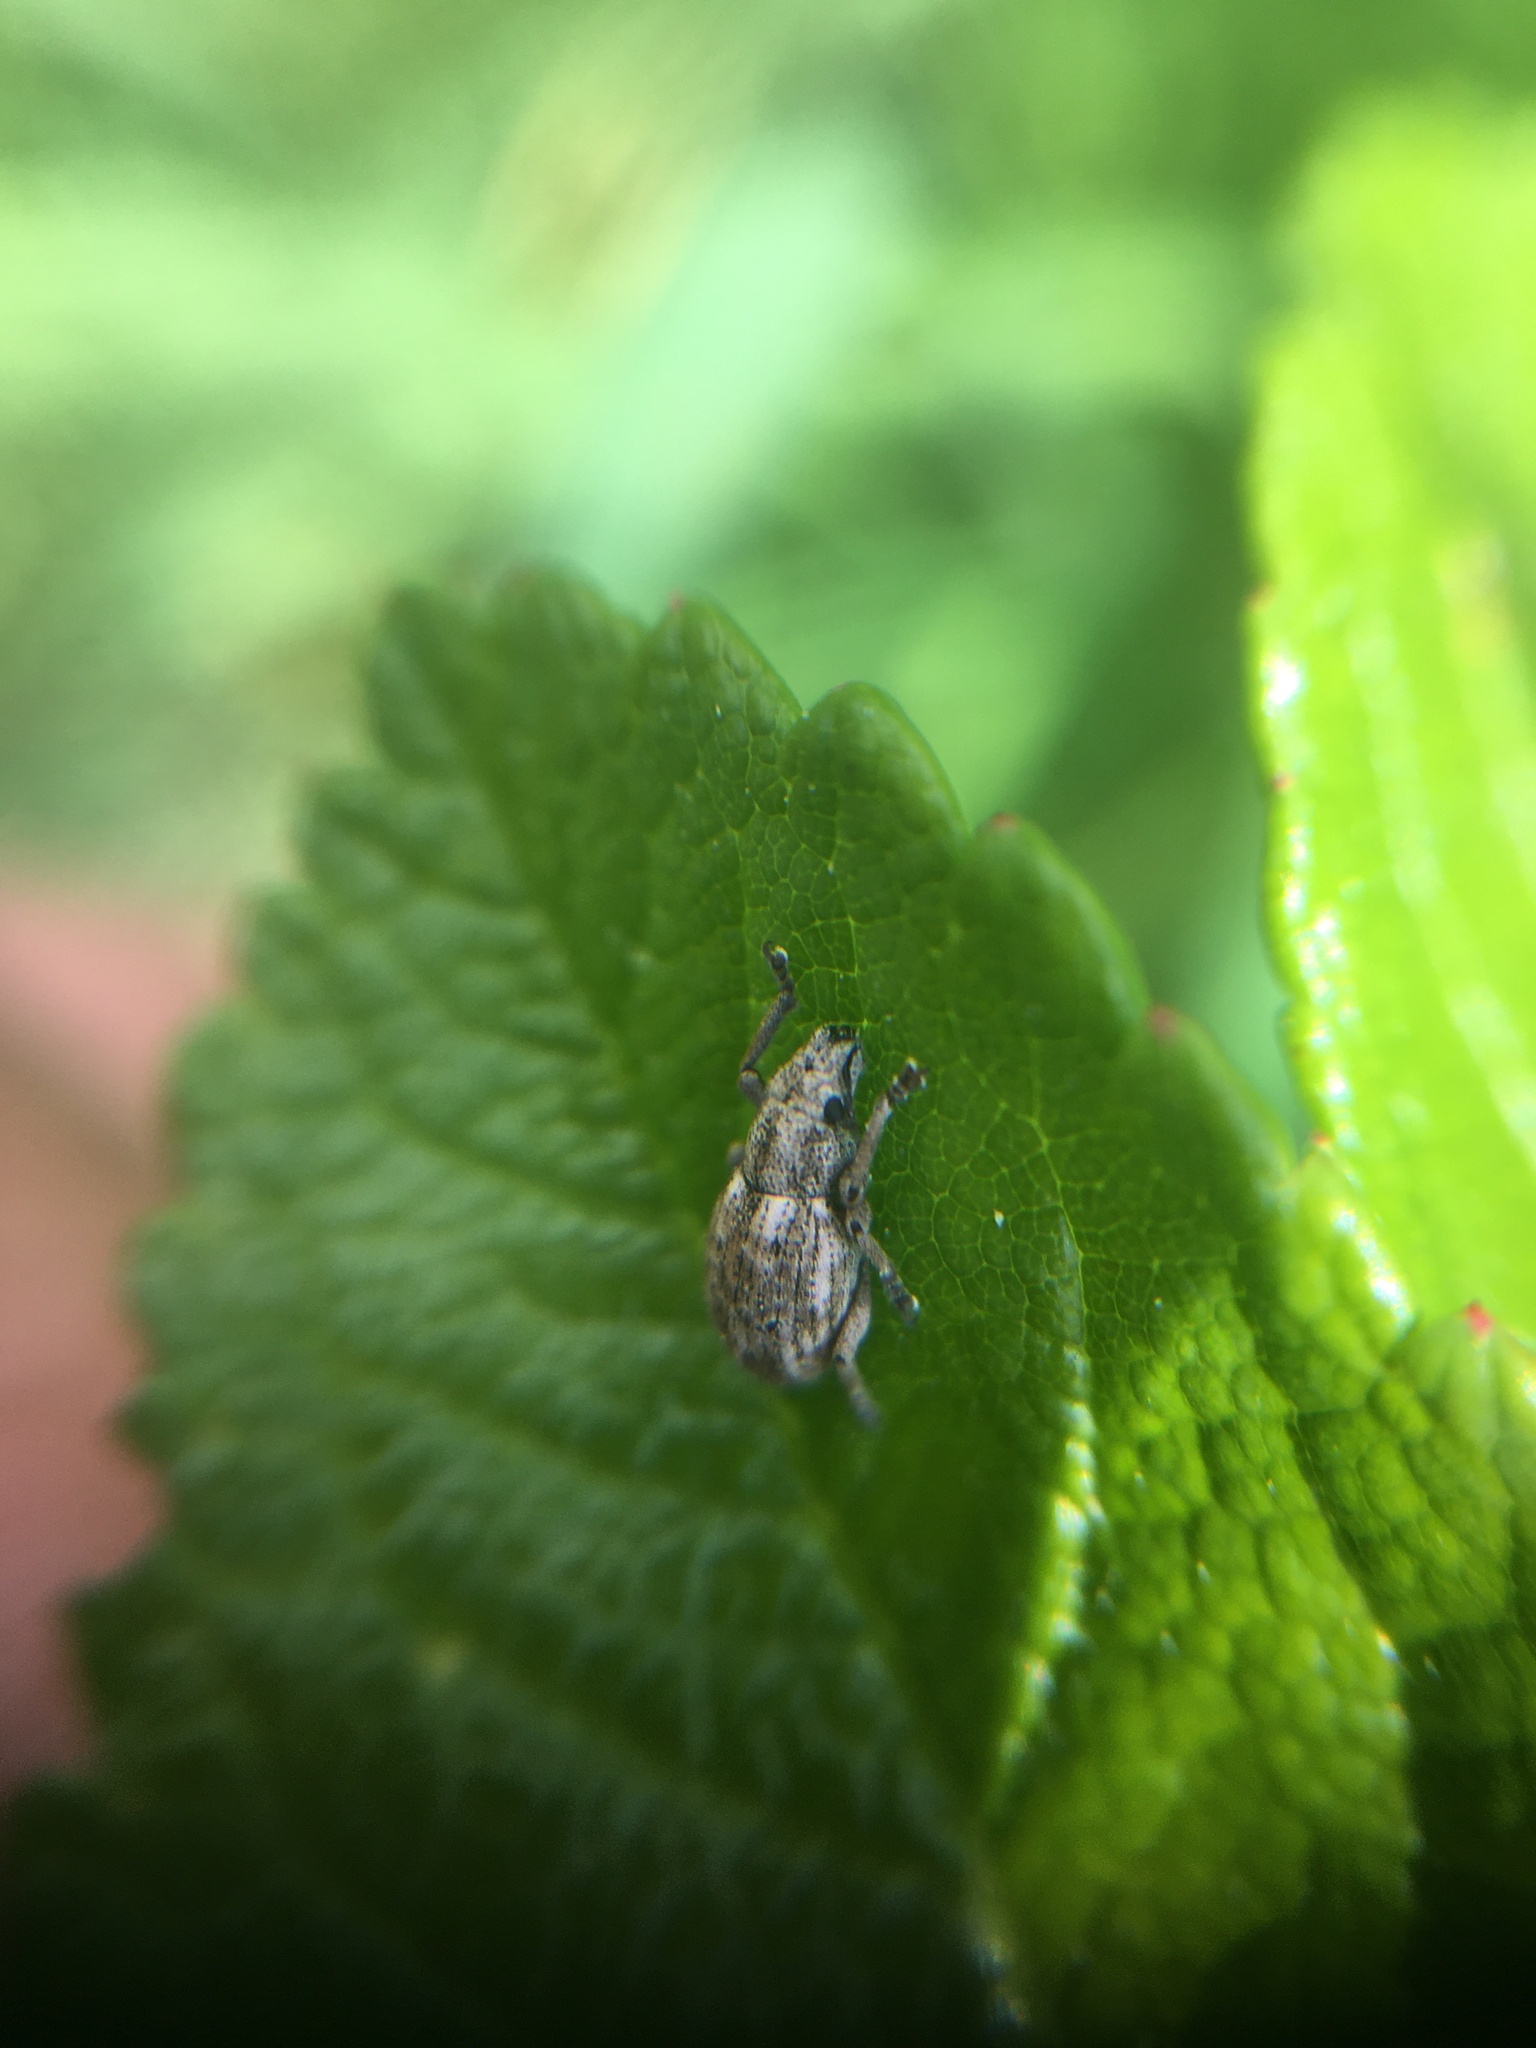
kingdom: Animalia
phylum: Arthropoda
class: Insecta
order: Coleoptera
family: Curculionidae
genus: Strophosoma
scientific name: Strophosoma capitatum
